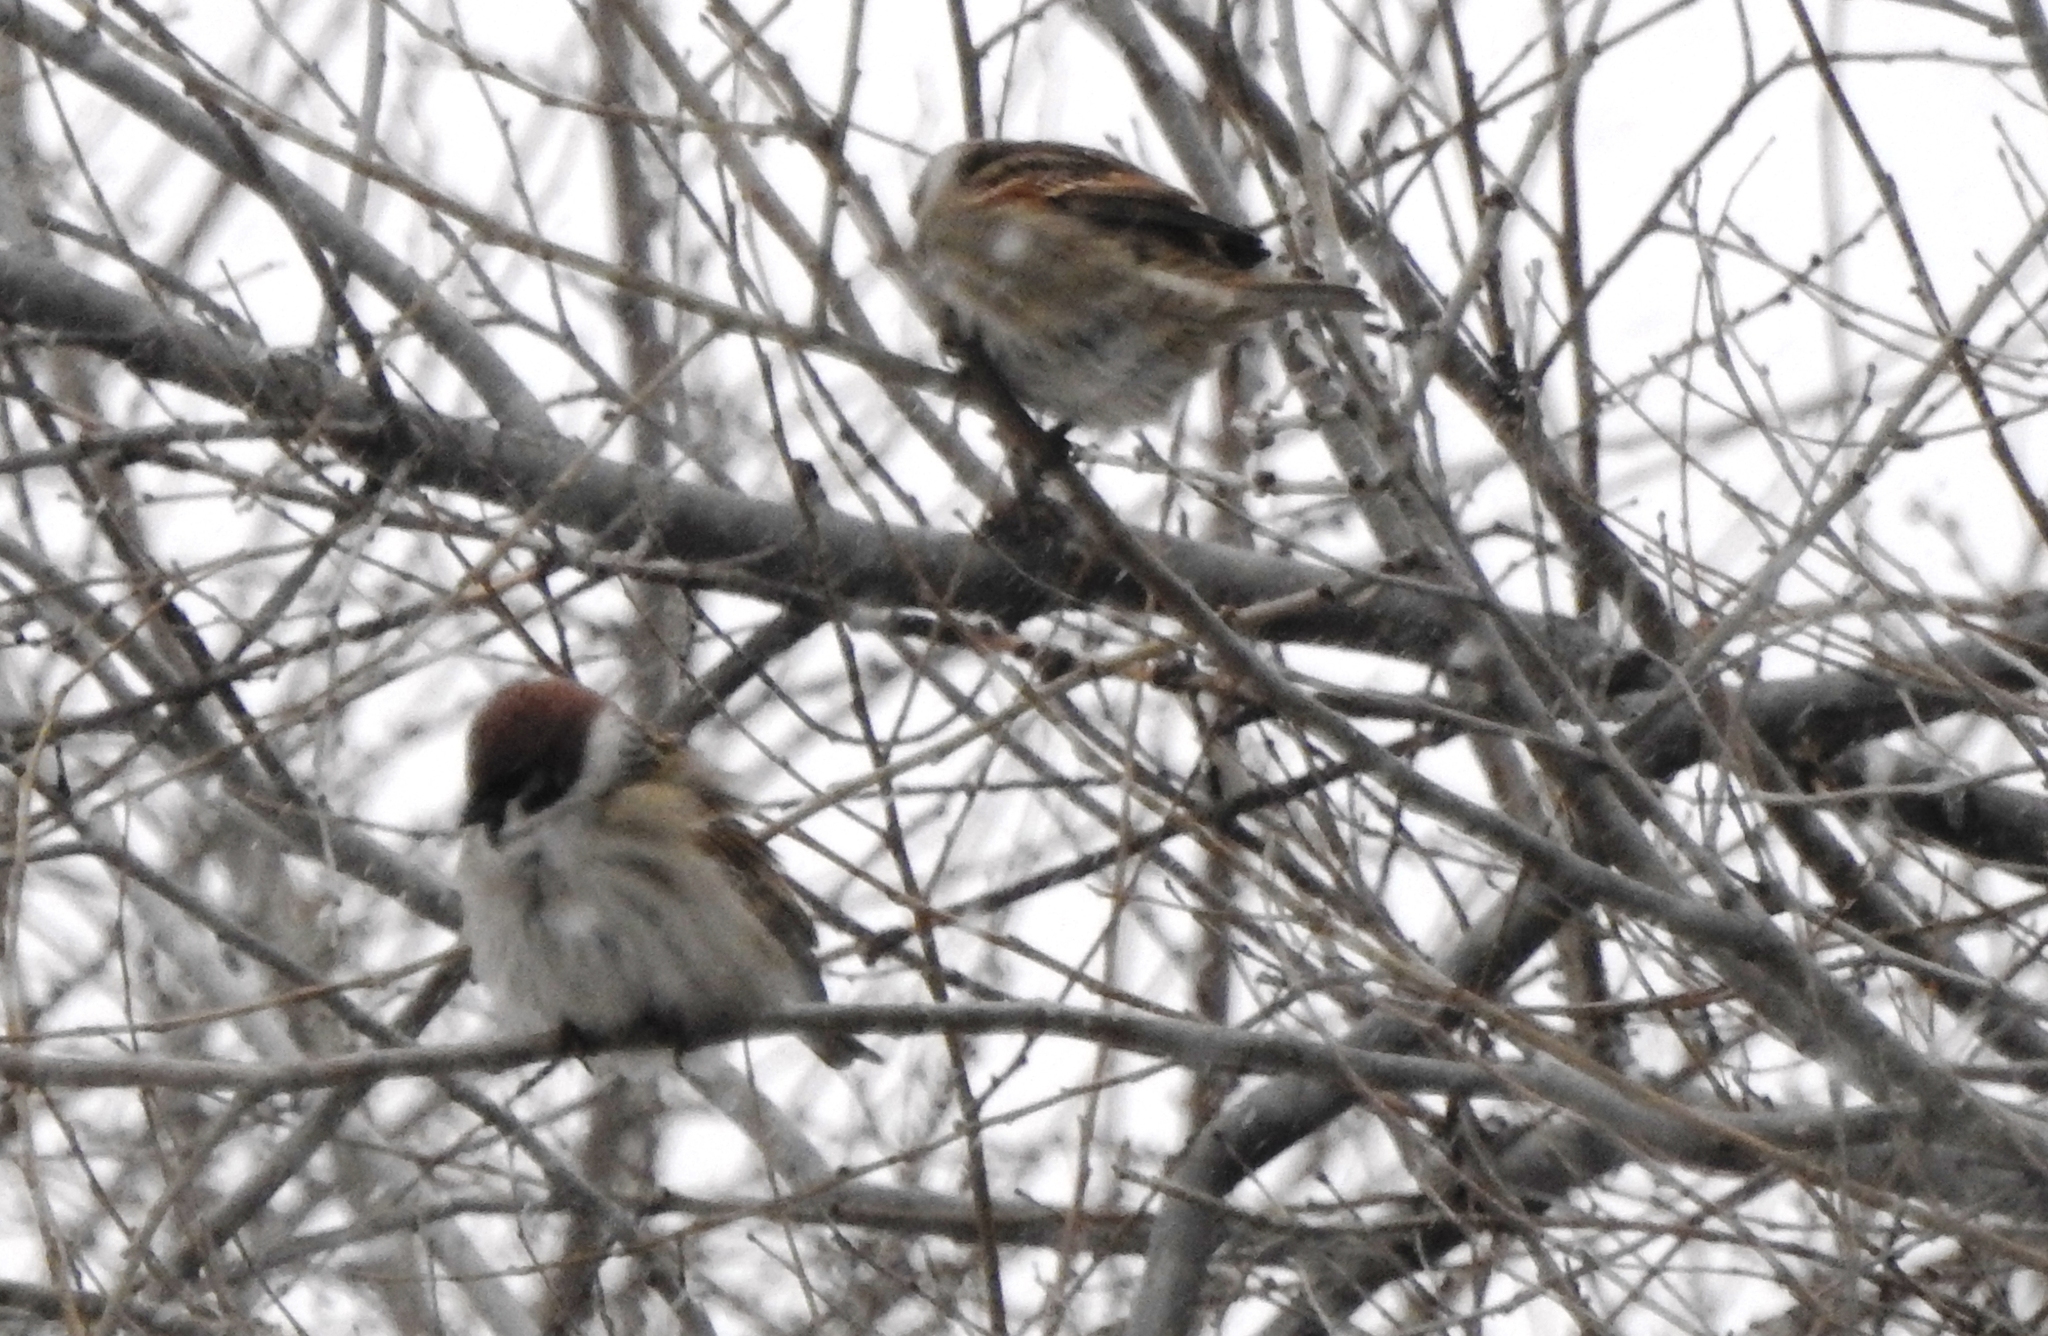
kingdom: Animalia
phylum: Chordata
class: Aves
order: Passeriformes
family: Passeridae
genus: Passer
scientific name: Passer montanus
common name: Eurasian tree sparrow
